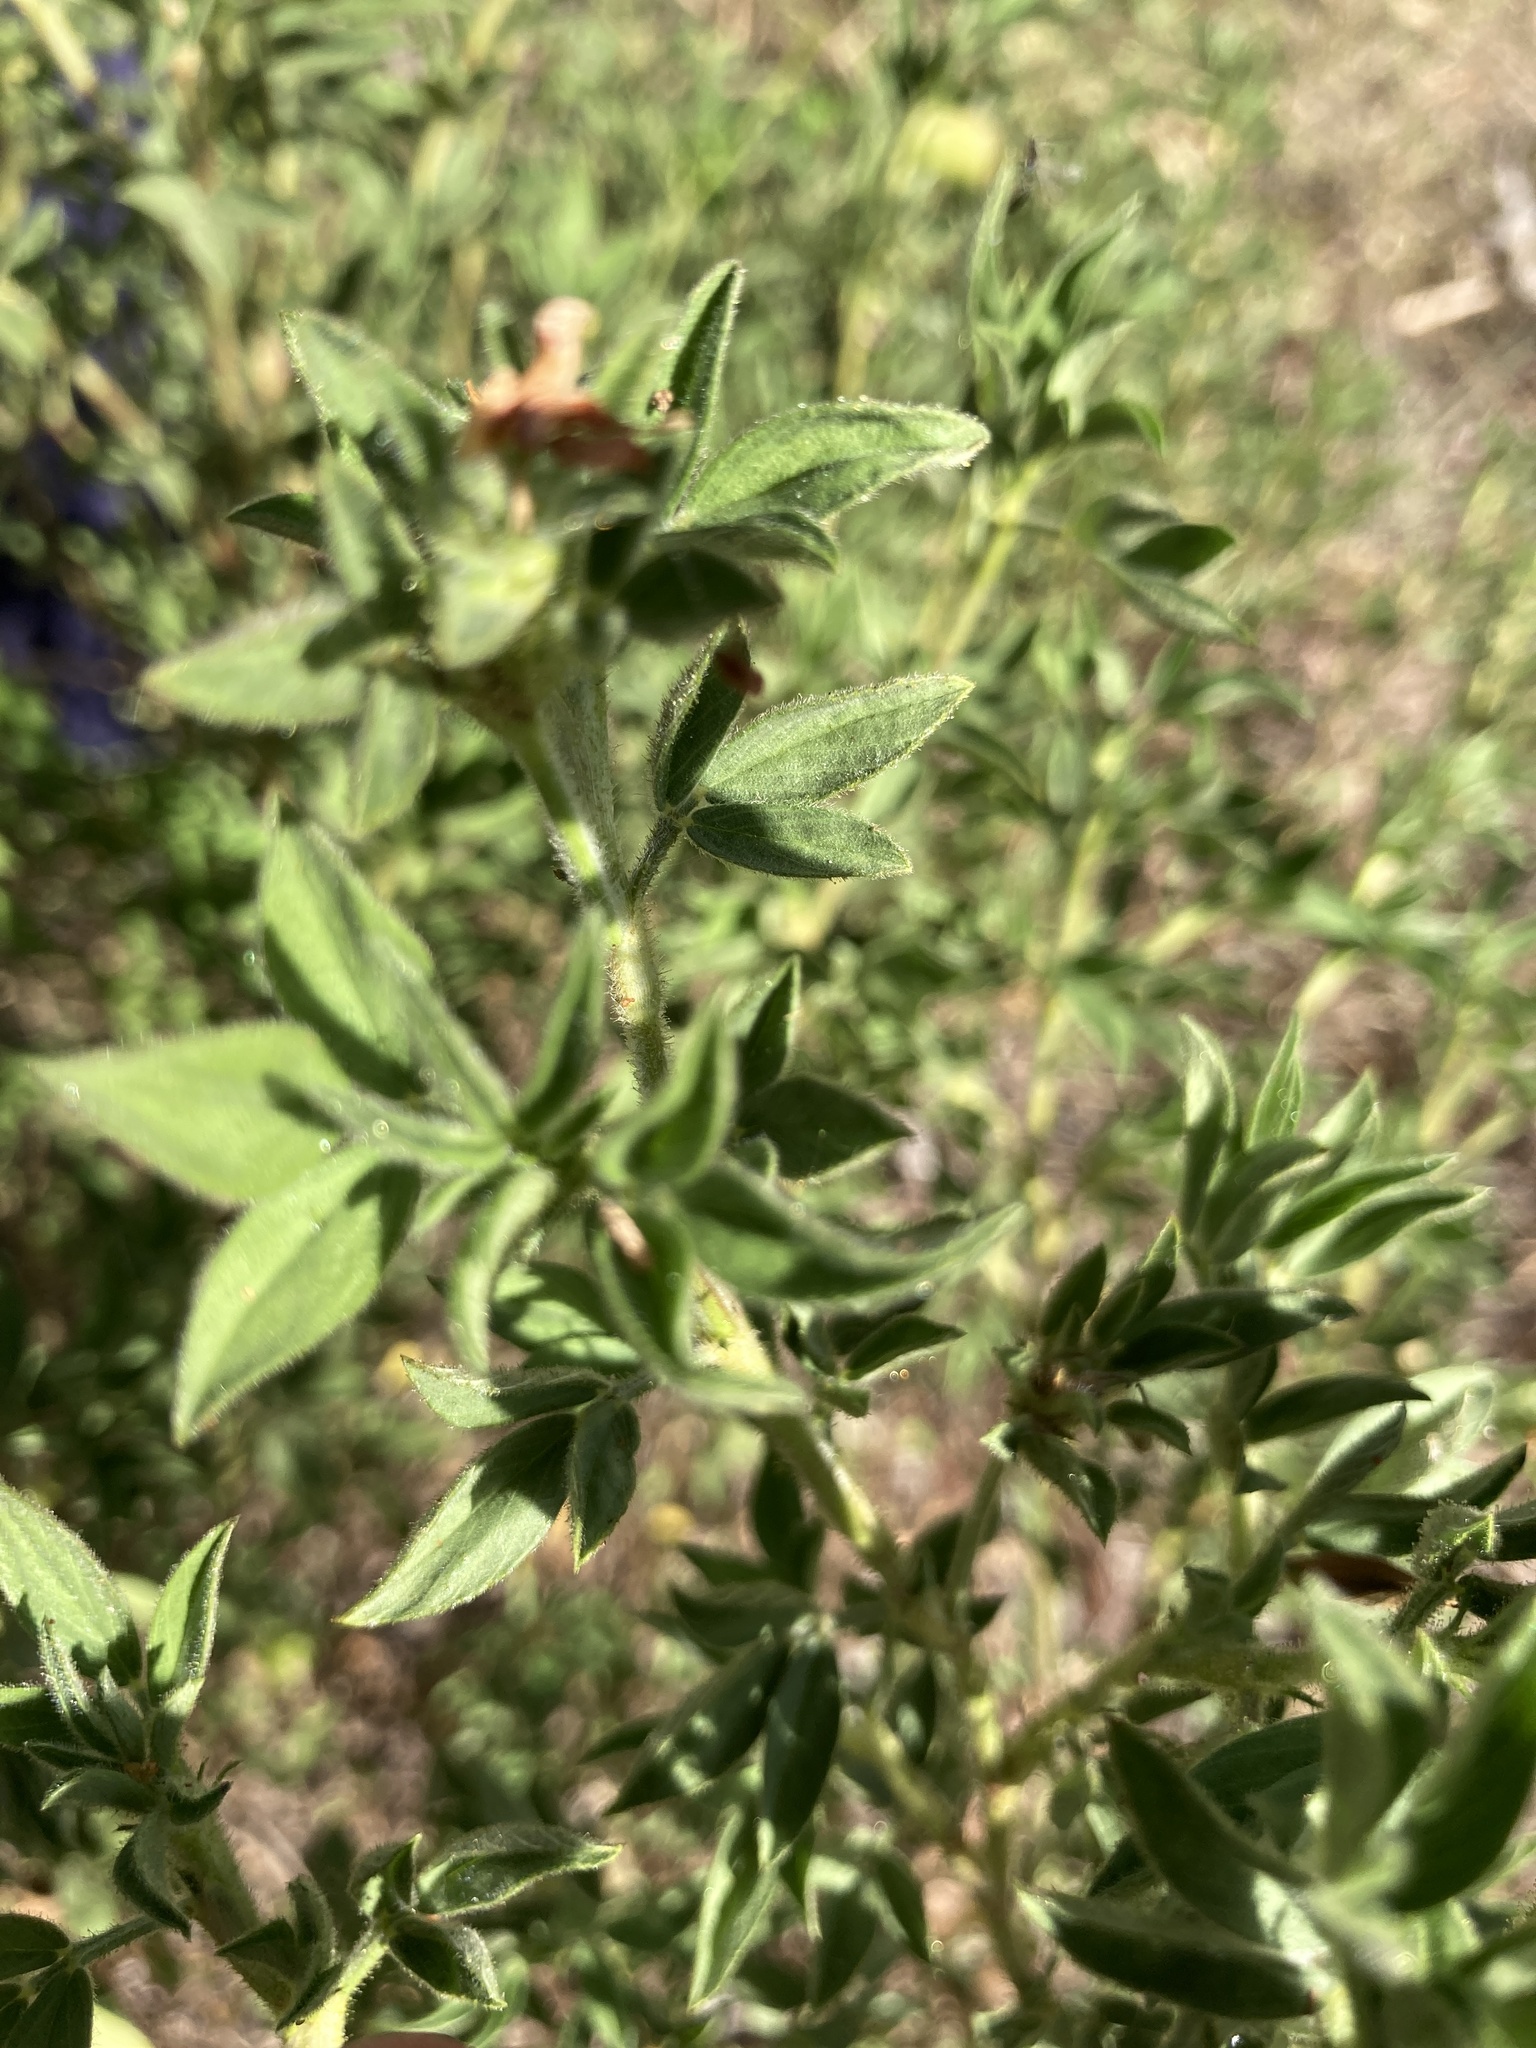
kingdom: Plantae
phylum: Tracheophyta
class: Magnoliopsida
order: Fabales
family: Fabaceae
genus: Stylosanthes
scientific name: Stylosanthes viscosa
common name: Viscid pencil-flower
